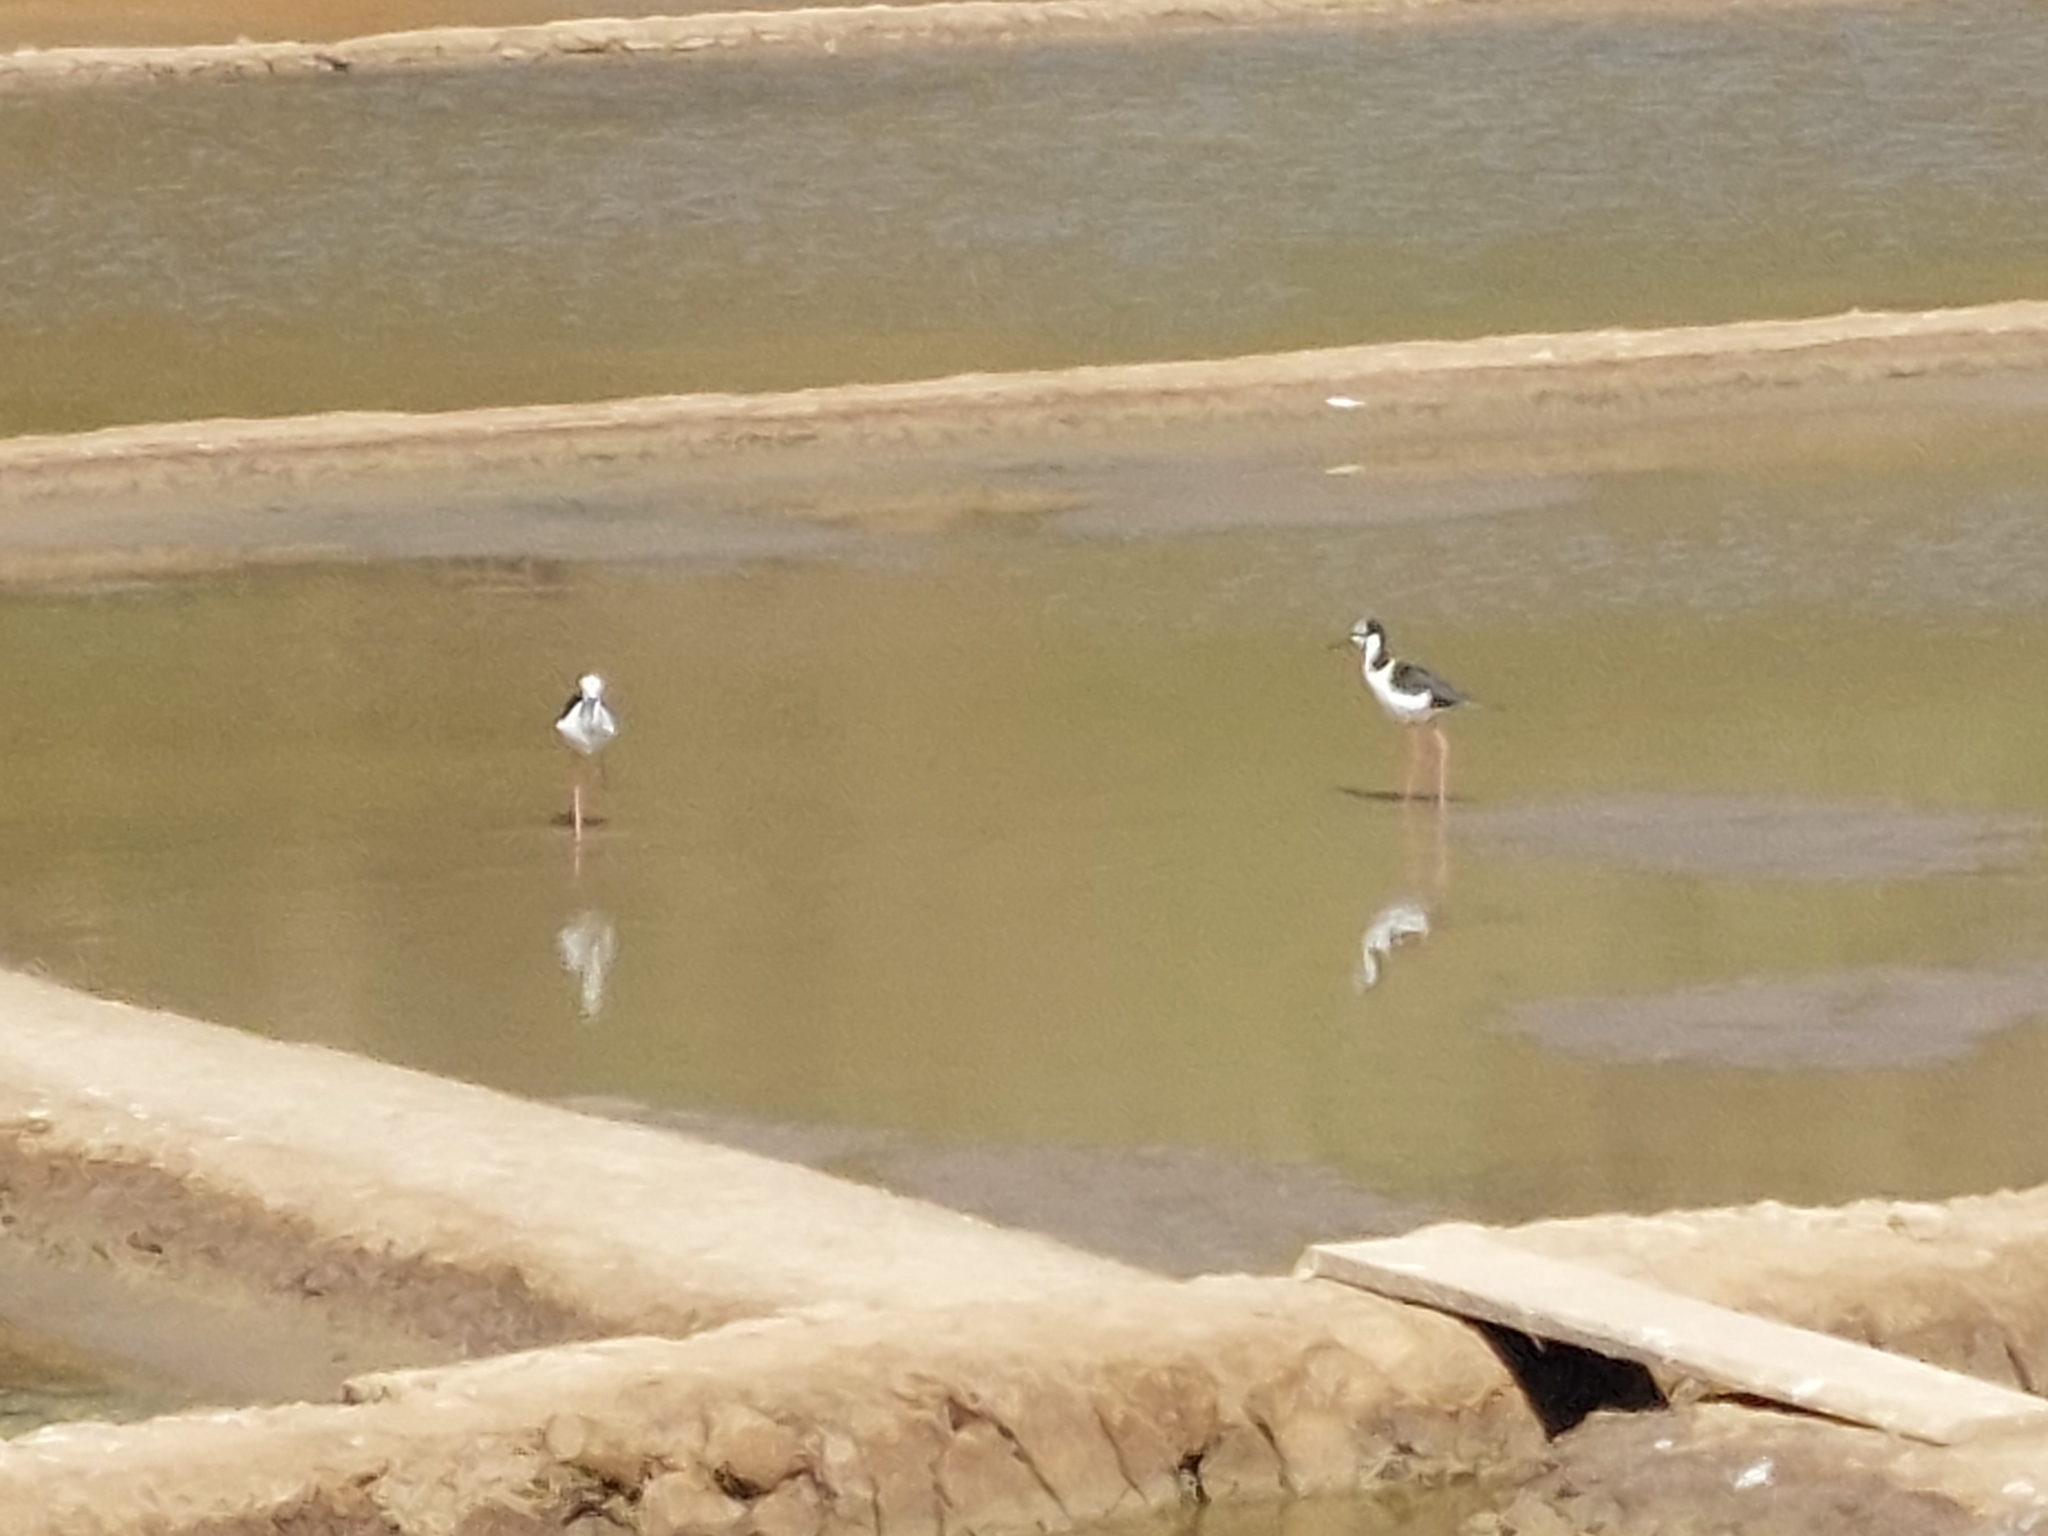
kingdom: Animalia
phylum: Chordata
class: Aves
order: Charadriiformes
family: Recurvirostridae
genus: Himantopus
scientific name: Himantopus mexicanus
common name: Black-necked stilt
